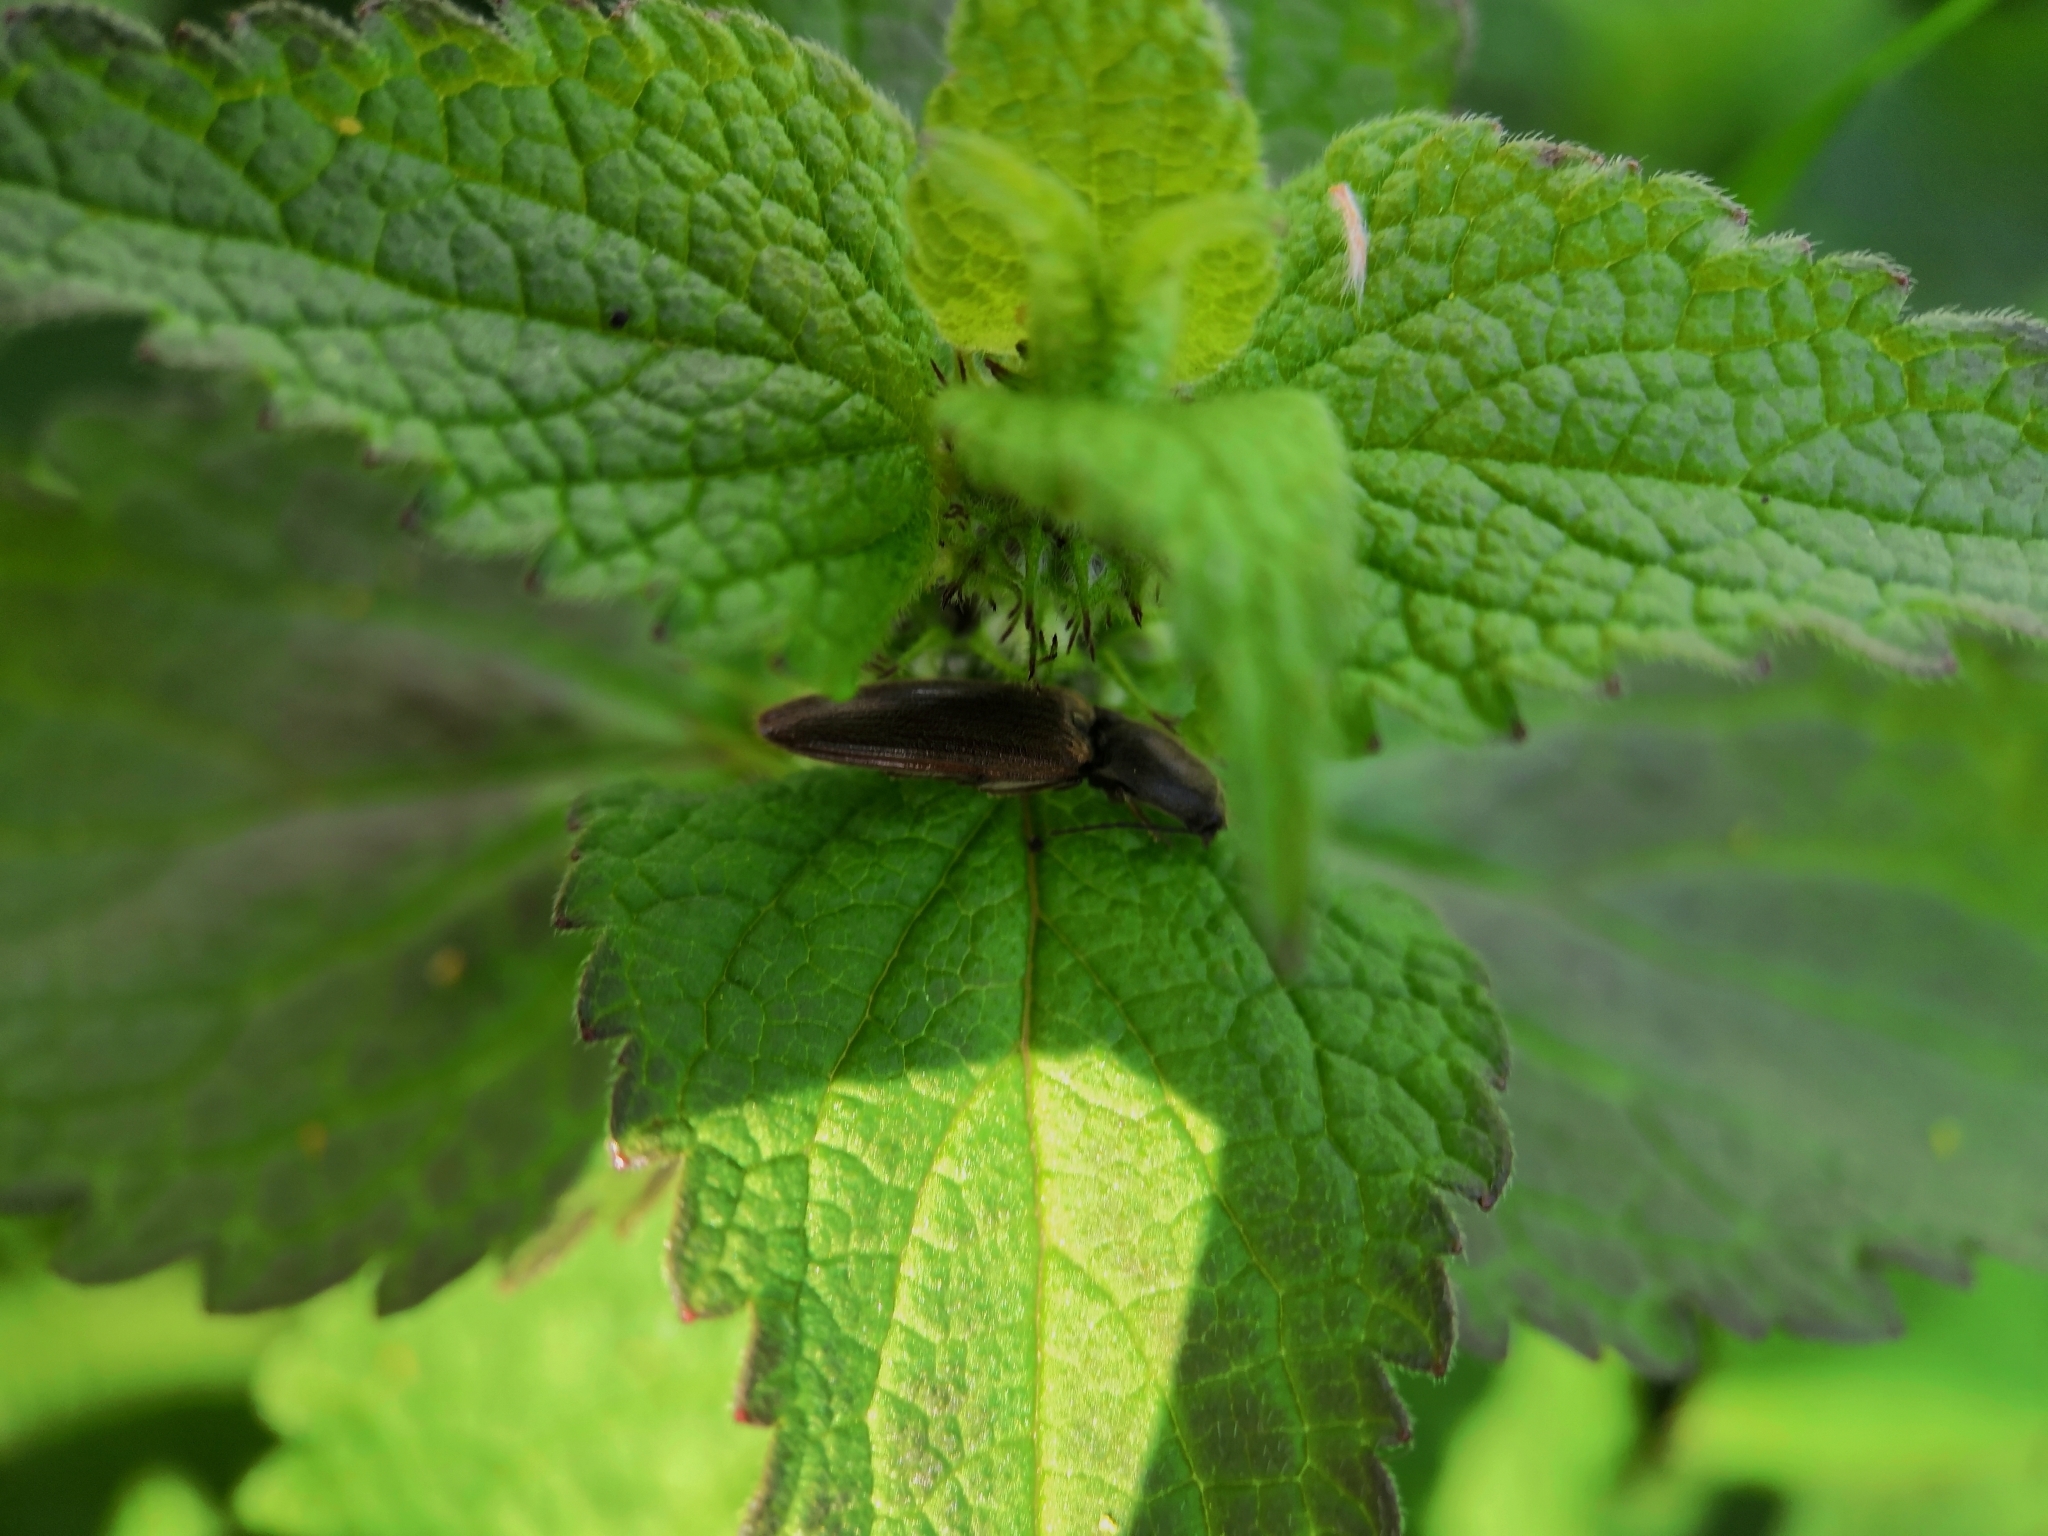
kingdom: Animalia
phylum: Arthropoda
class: Insecta
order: Coleoptera
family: Elateridae
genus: Athous
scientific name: Athous haemorrhoidalis
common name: Red-brown click beetle
